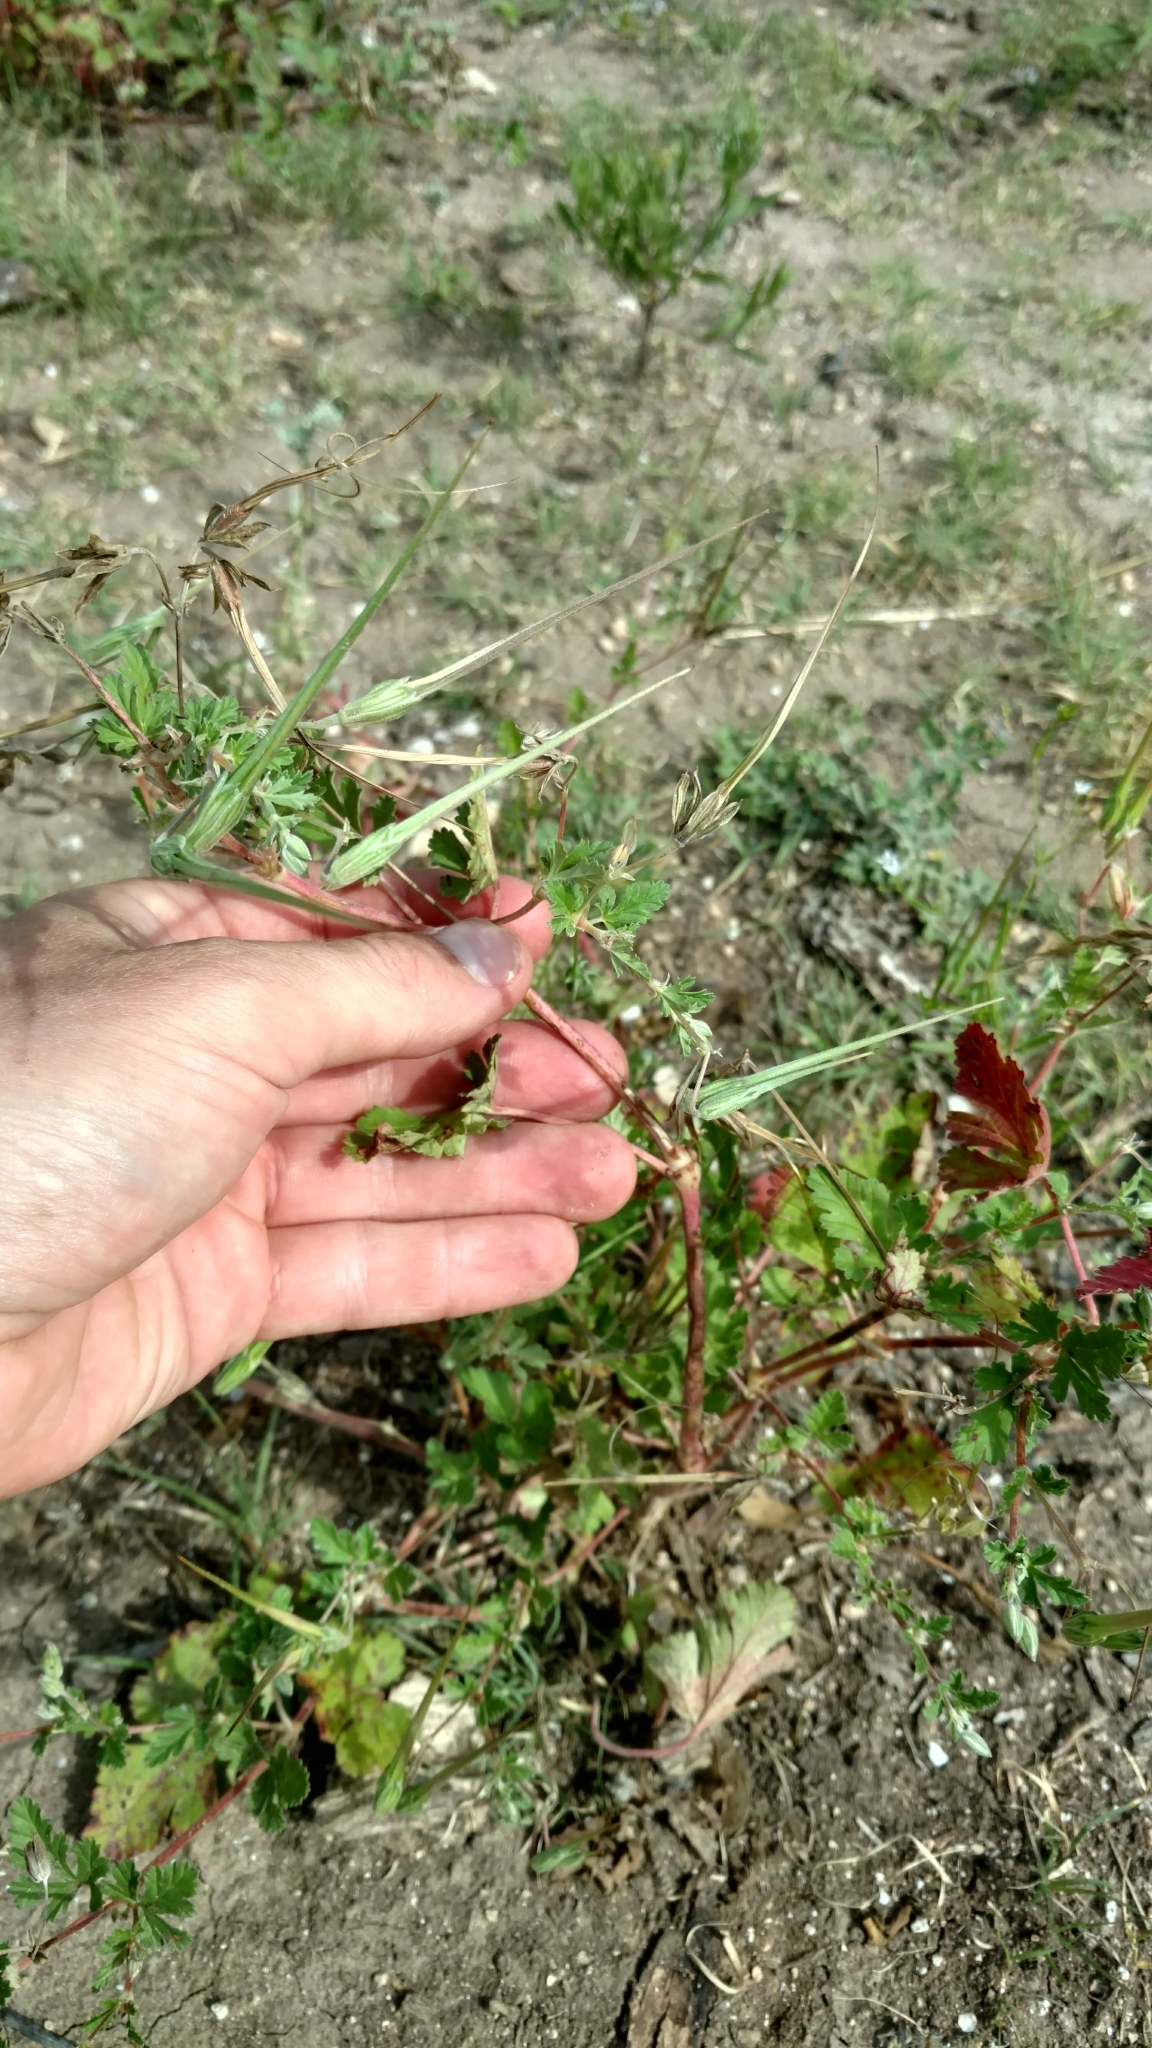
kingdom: Plantae
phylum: Tracheophyta
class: Magnoliopsida
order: Geraniales
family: Geraniaceae
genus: Erodium
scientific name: Erodium texanum
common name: Texas stork's-bill
